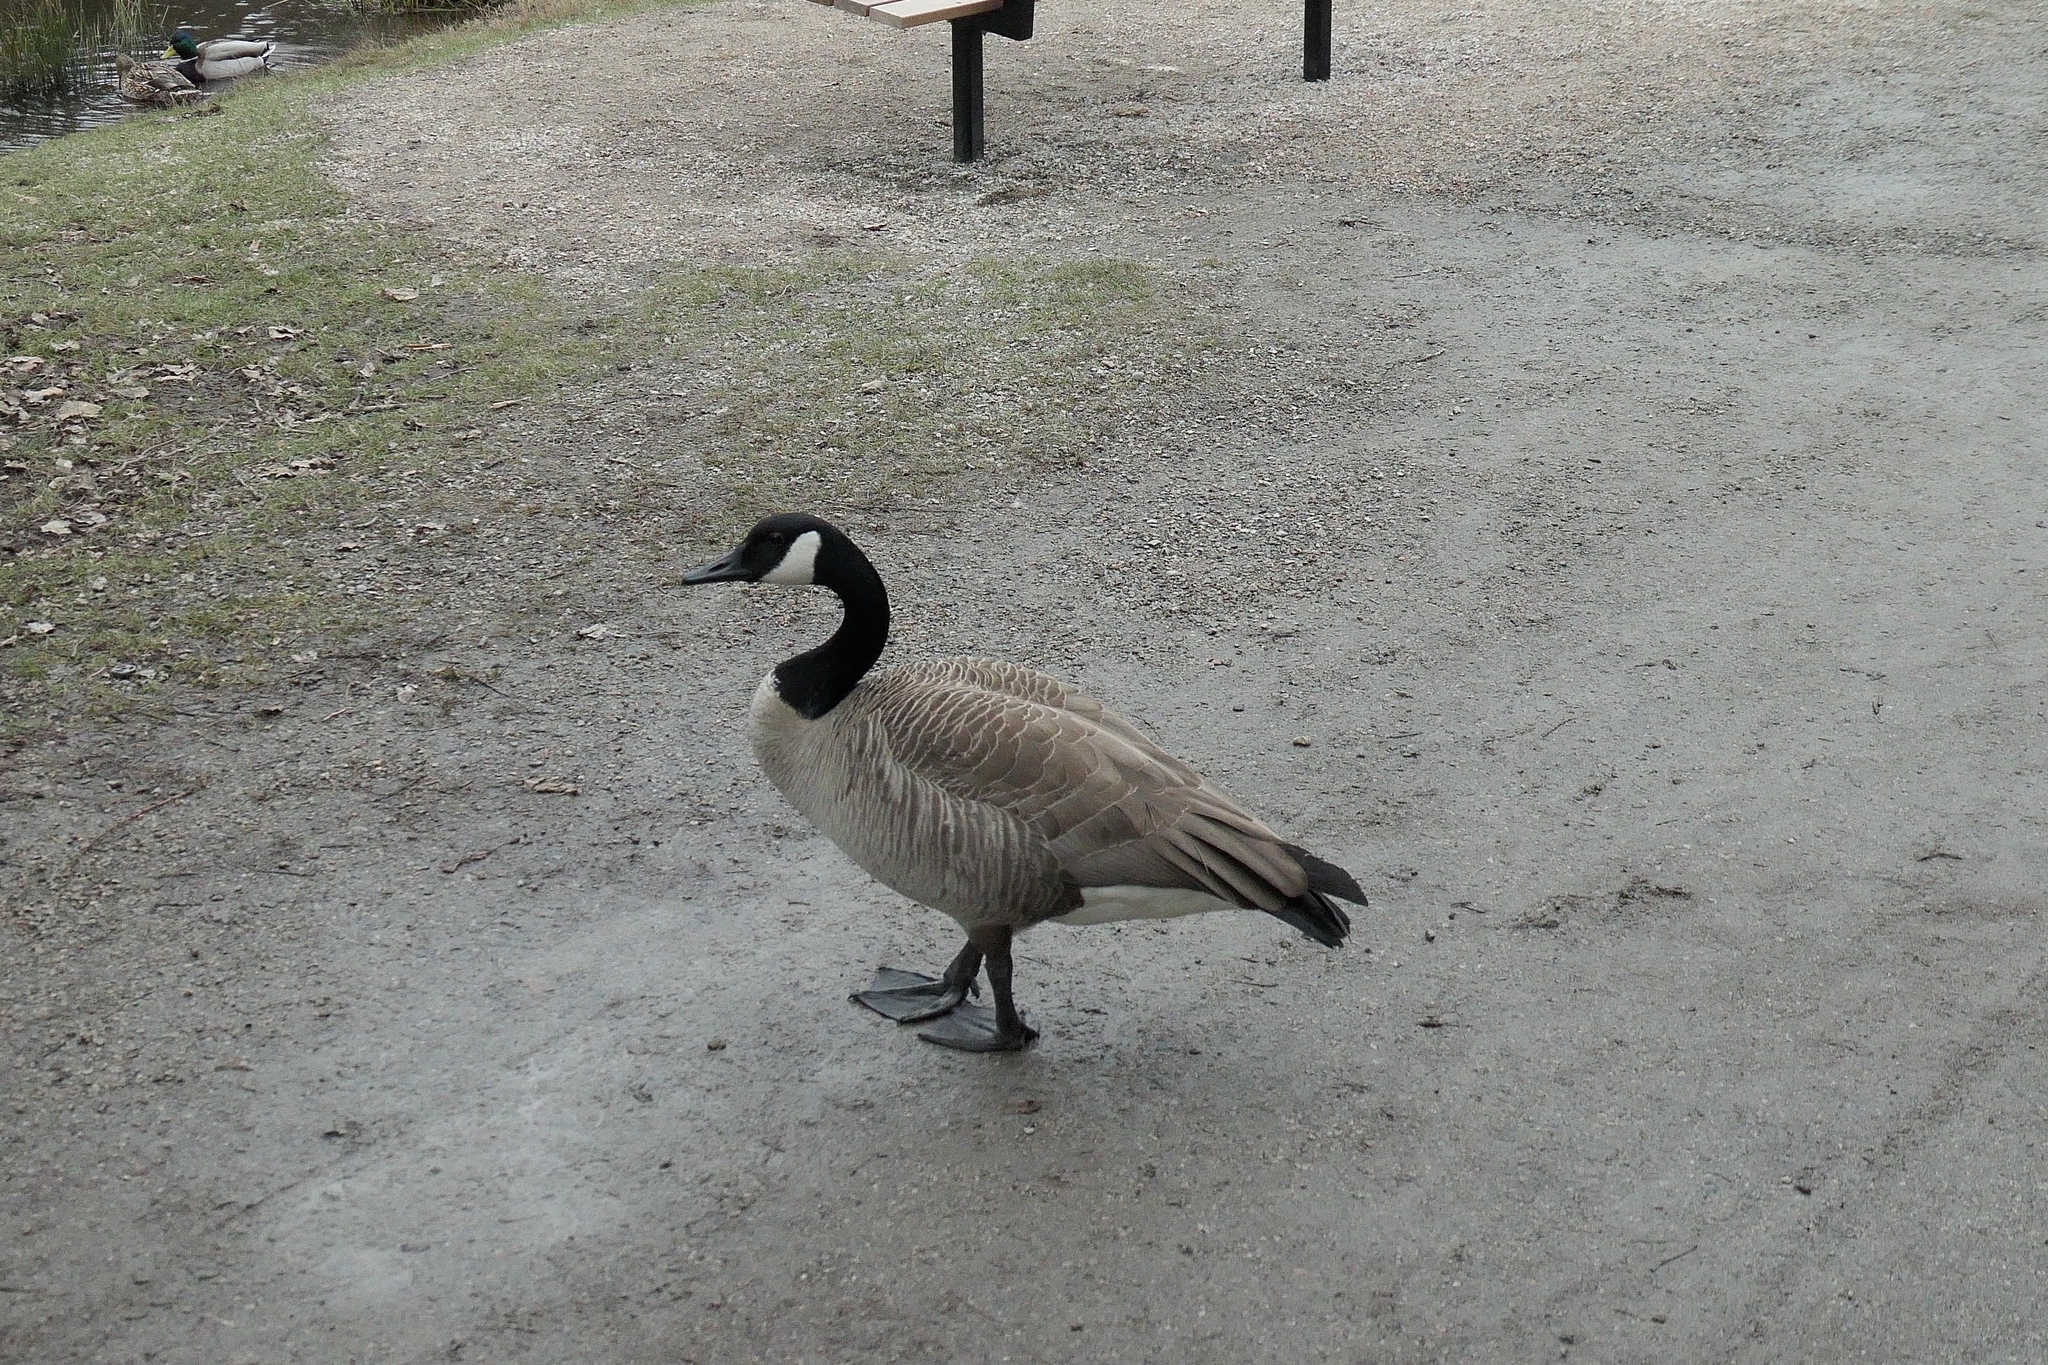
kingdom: Animalia
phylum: Chordata
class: Aves
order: Anseriformes
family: Anatidae
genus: Branta
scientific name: Branta canadensis
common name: Canada goose
